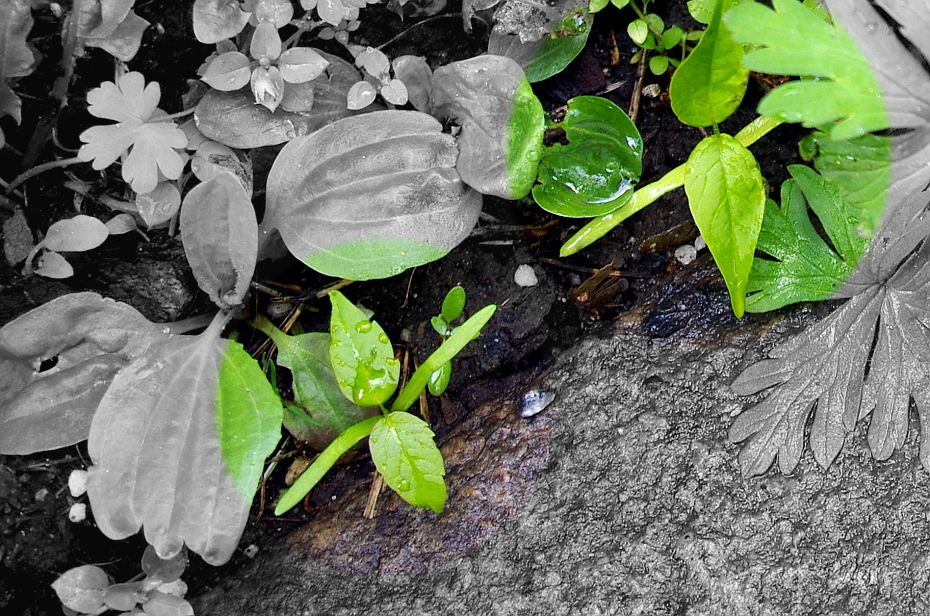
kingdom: Plantae
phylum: Tracheophyta
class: Magnoliopsida
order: Sapindales
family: Sapindaceae
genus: Acer
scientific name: Acer negundo
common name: Ashleaf maple
